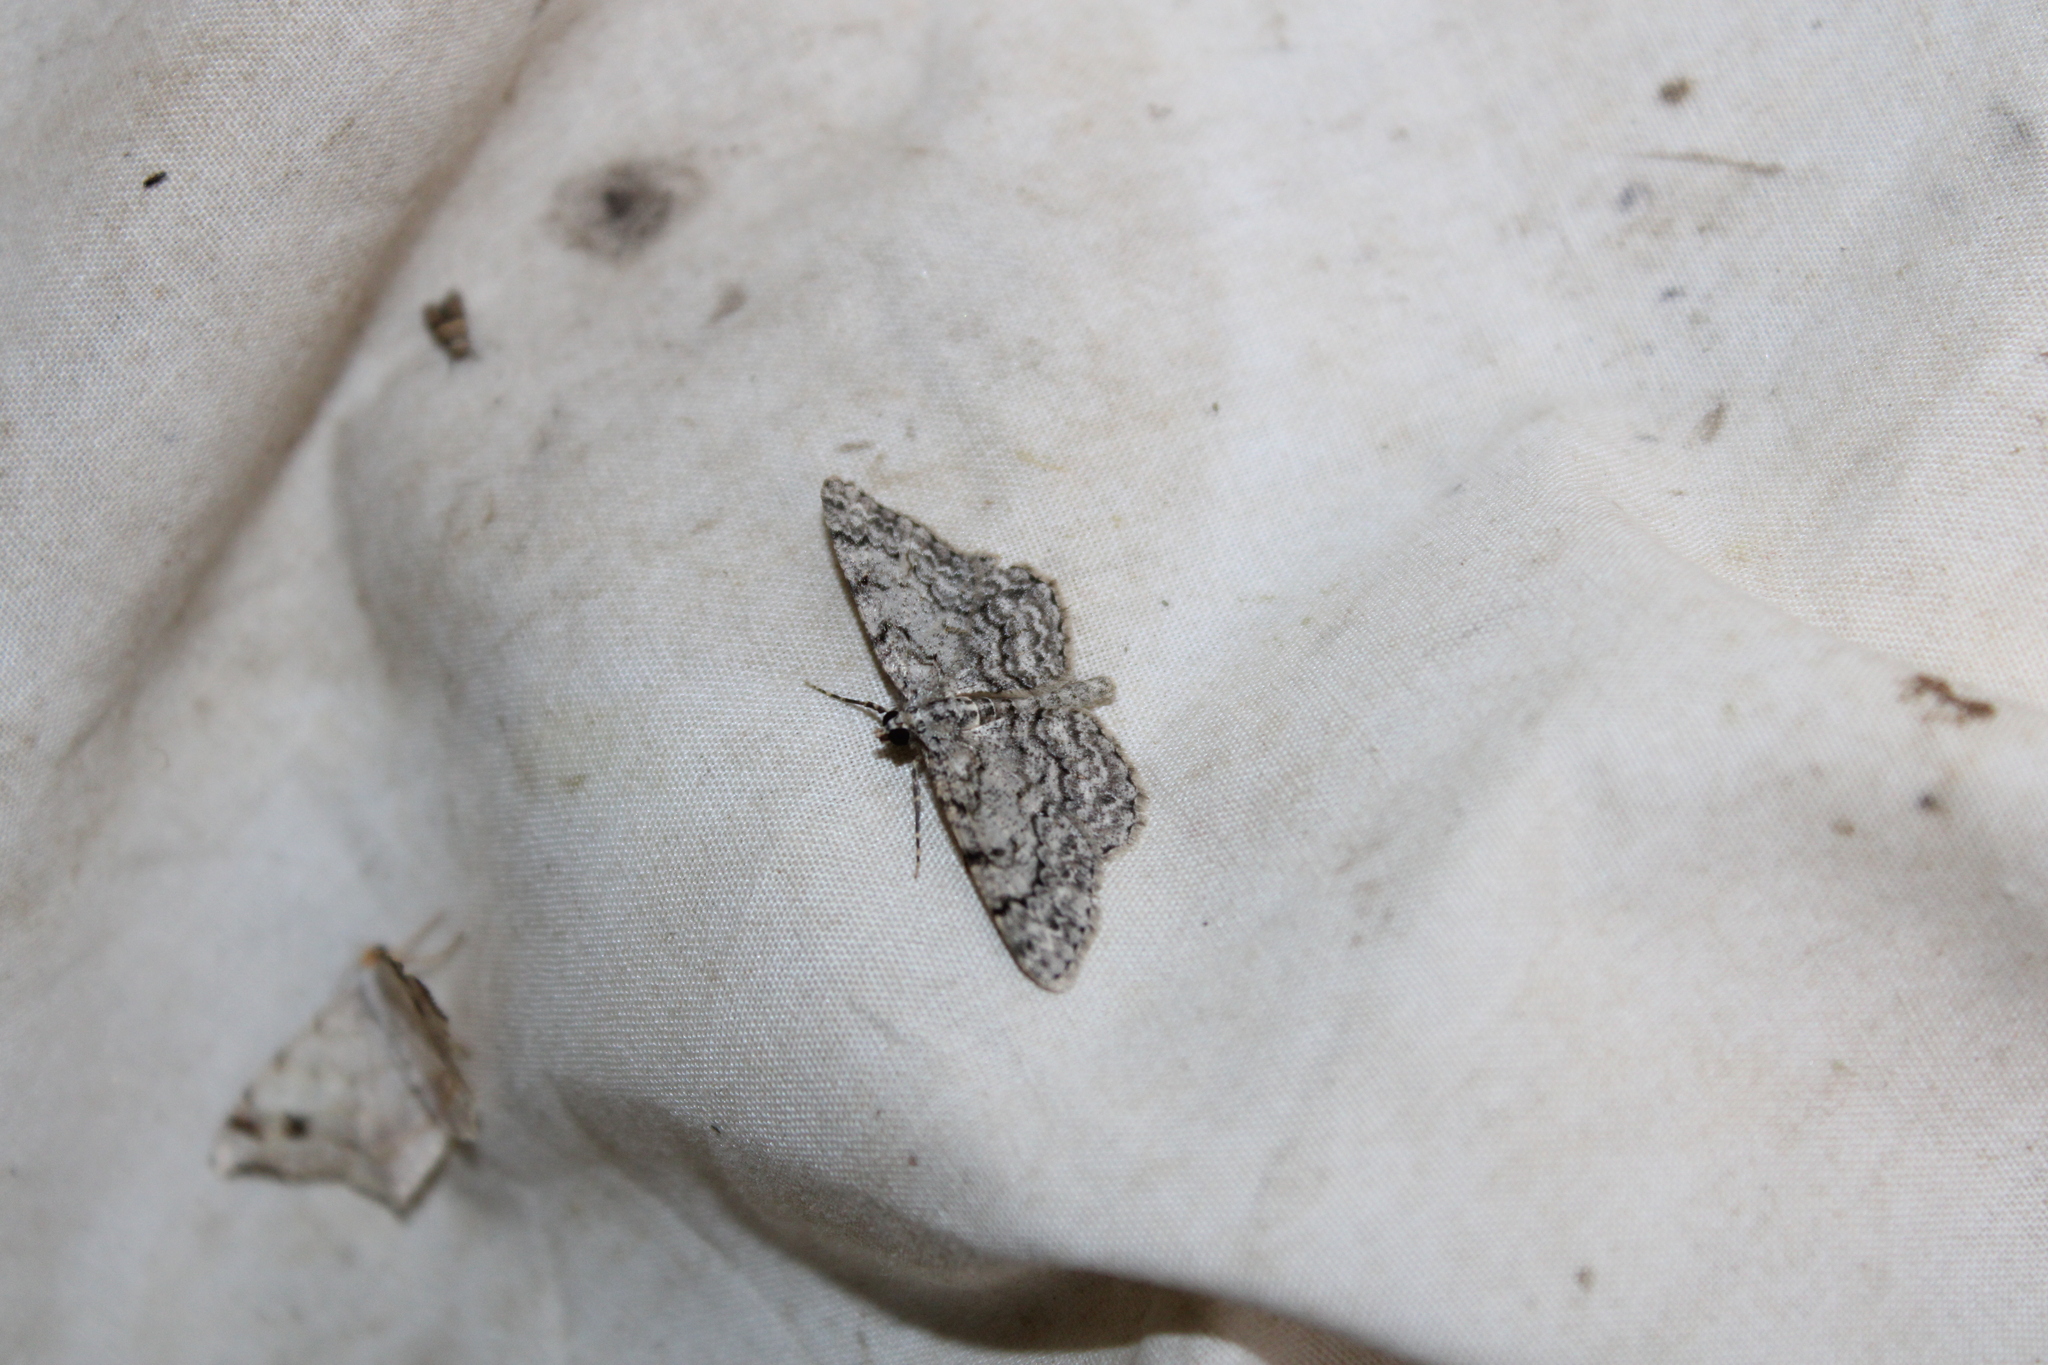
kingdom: Animalia
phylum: Arthropoda
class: Insecta
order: Lepidoptera
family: Geometridae
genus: Protoboarmia
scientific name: Protoboarmia porcelaria
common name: Porcelain gray
